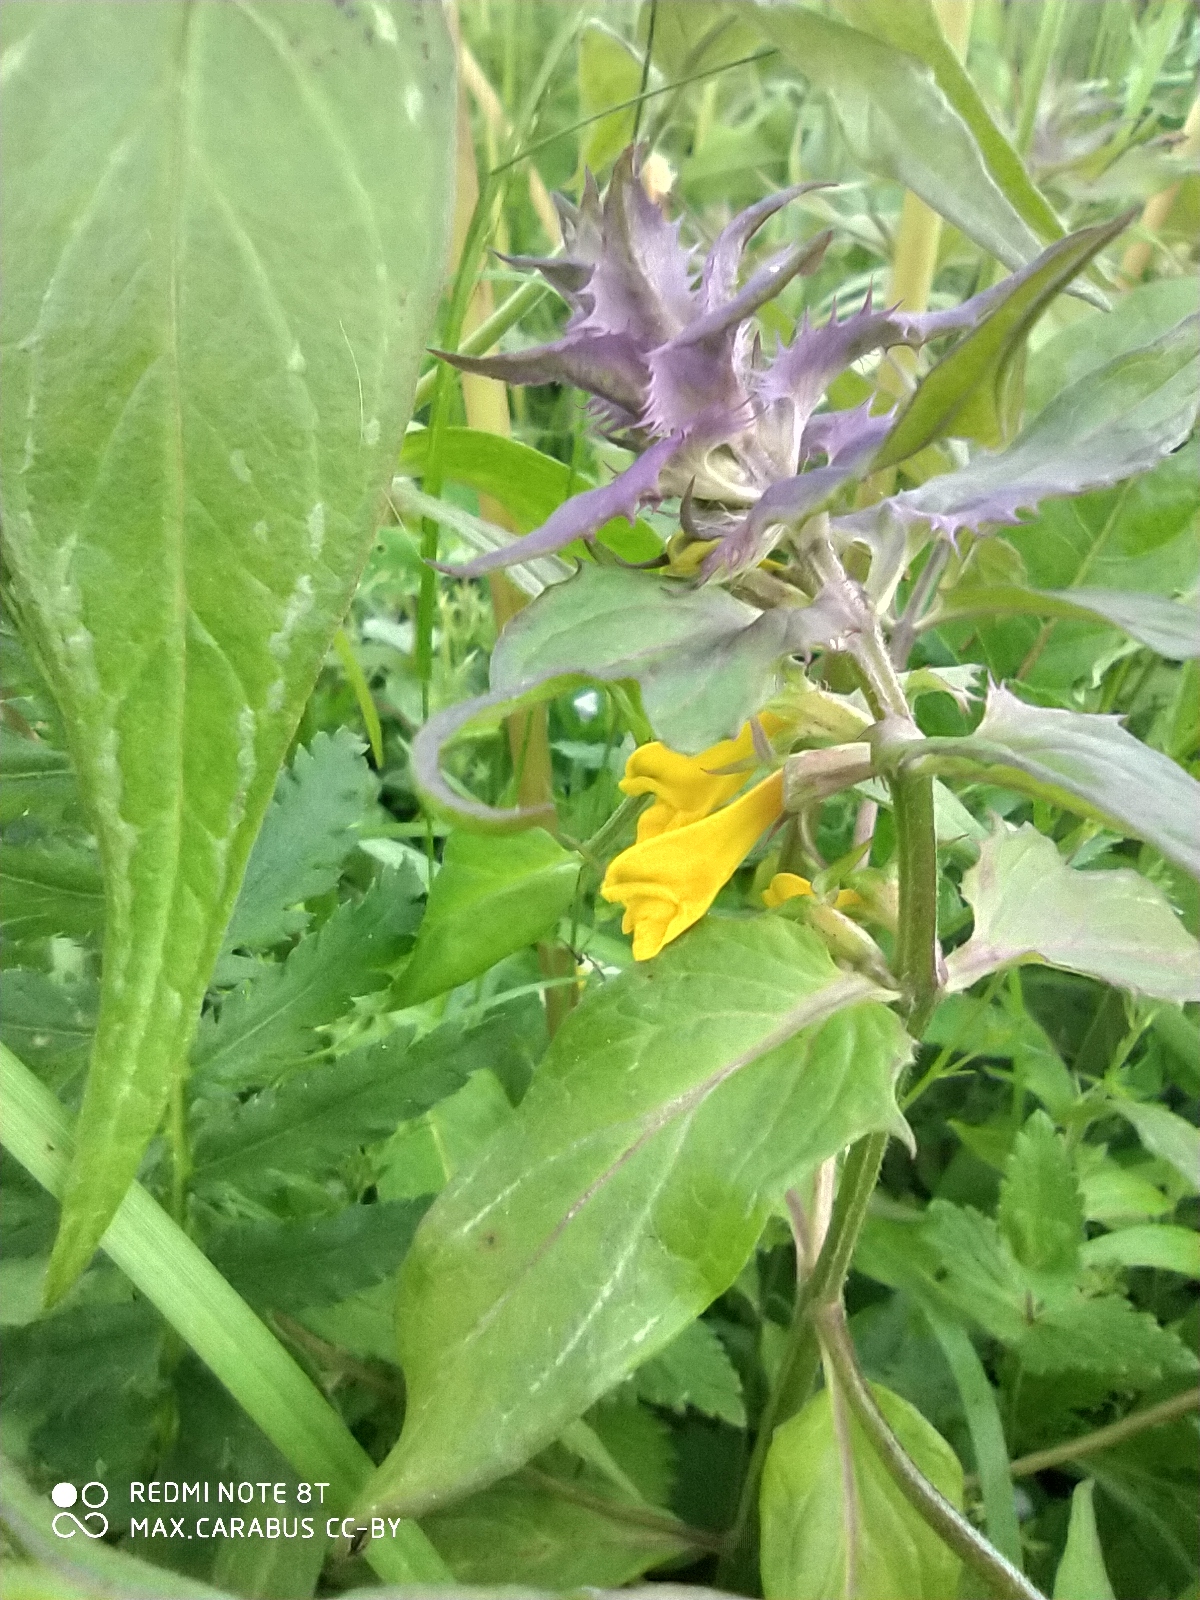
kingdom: Plantae
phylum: Tracheophyta
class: Magnoliopsida
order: Lamiales
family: Orobanchaceae
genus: Melampyrum
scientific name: Melampyrum nemorosum
